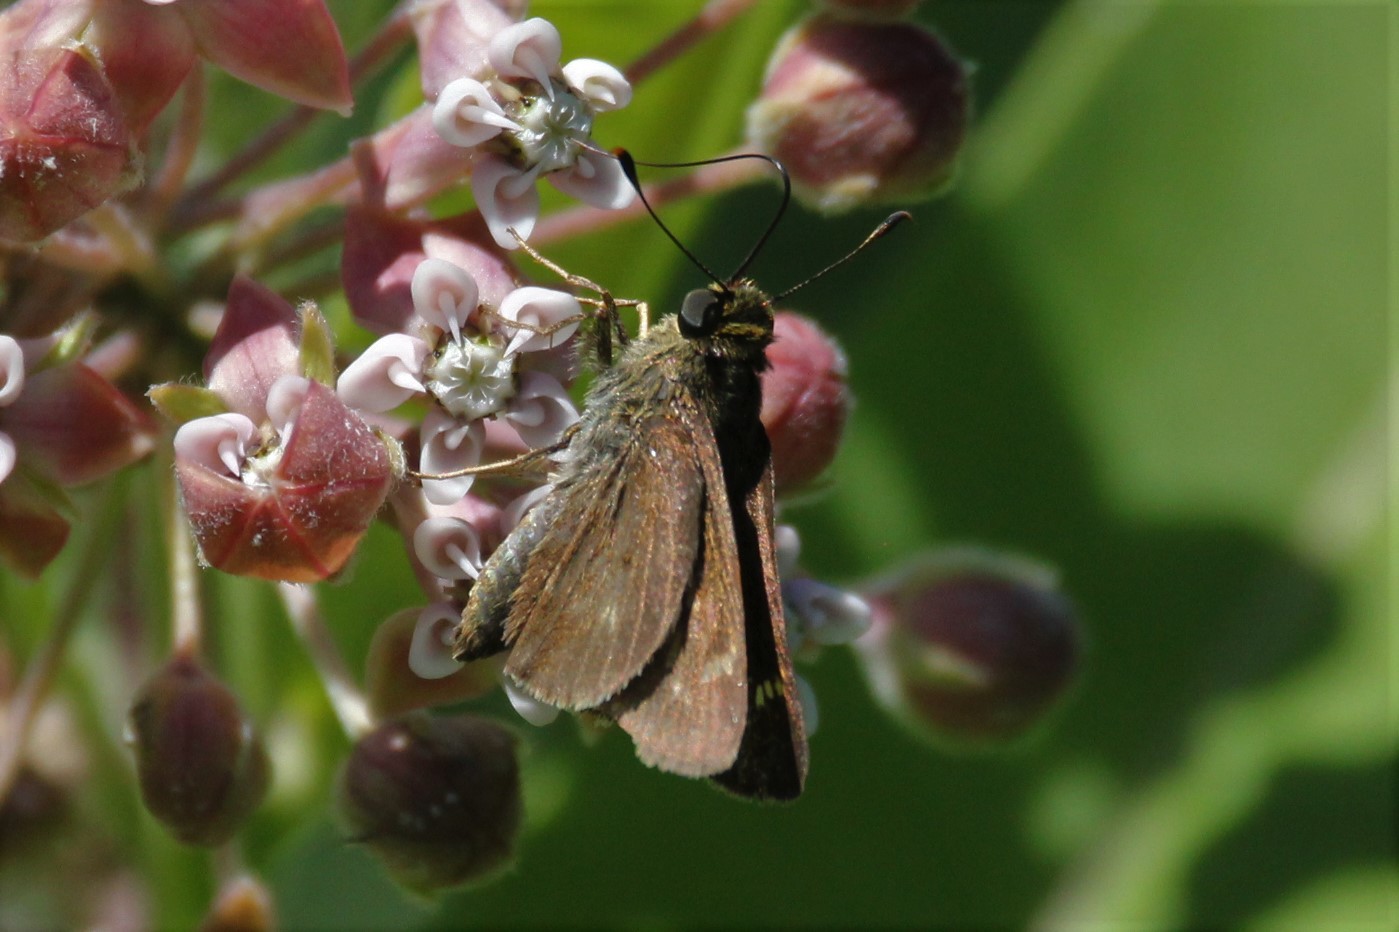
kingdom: Animalia
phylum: Arthropoda
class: Insecta
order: Lepidoptera
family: Hesperiidae
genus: Vernia
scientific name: Vernia verna
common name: Little glassywing
